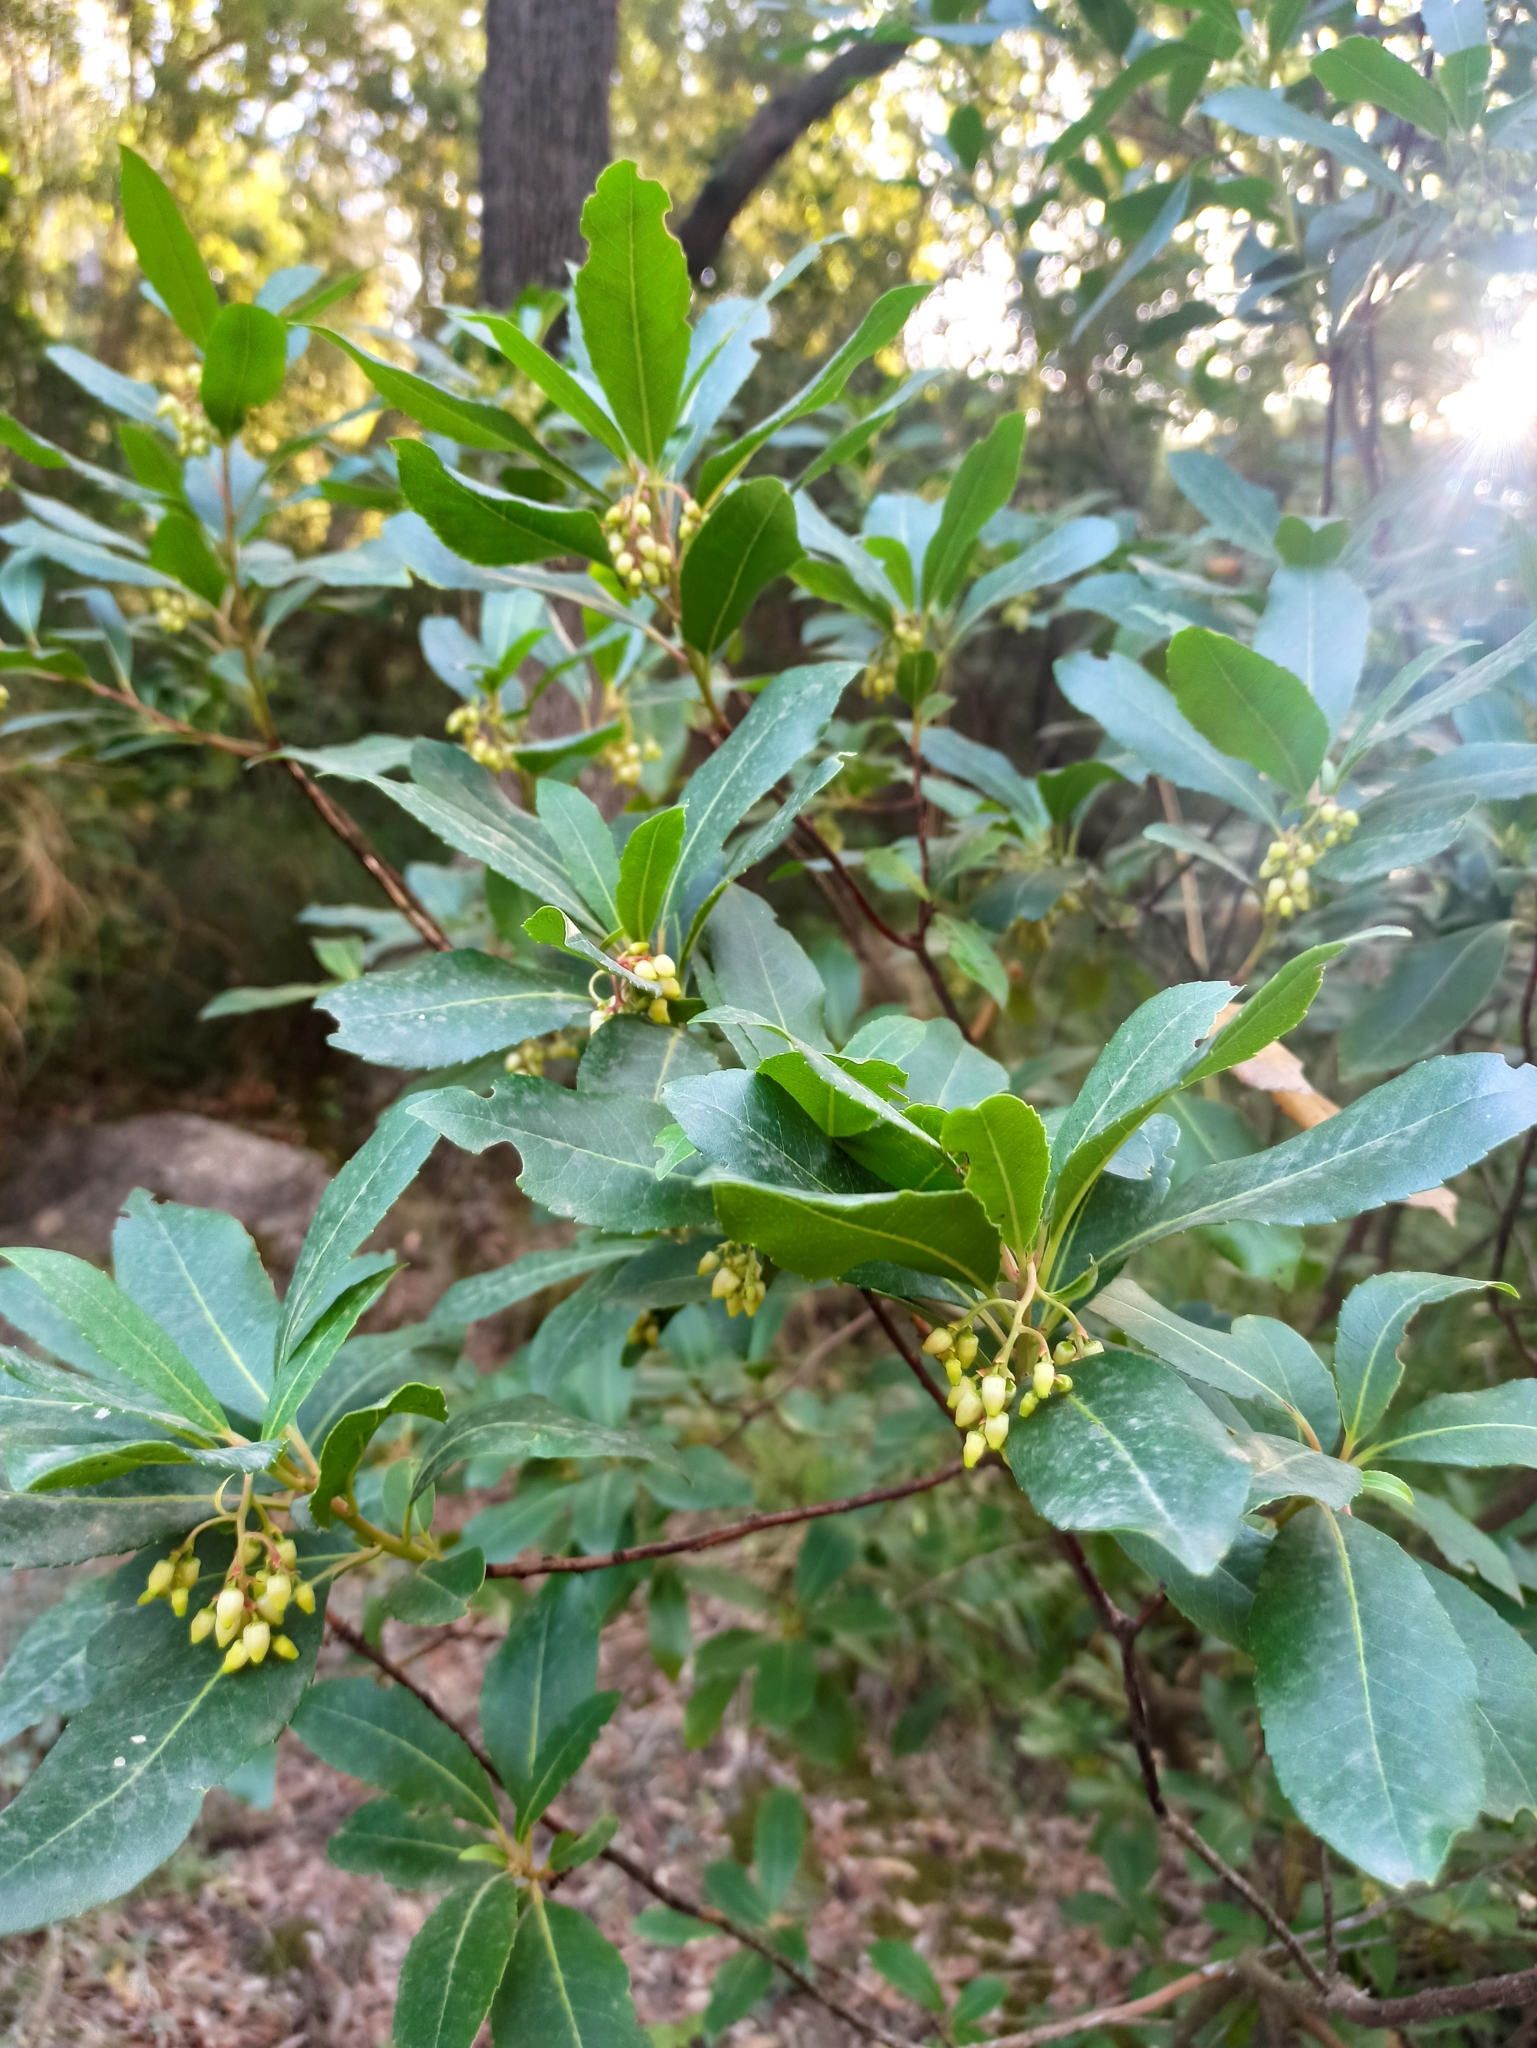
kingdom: Plantae
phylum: Tracheophyta
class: Magnoliopsida
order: Ericales
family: Ericaceae
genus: Arbutus
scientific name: Arbutus unedo
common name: Strawberry-tree
